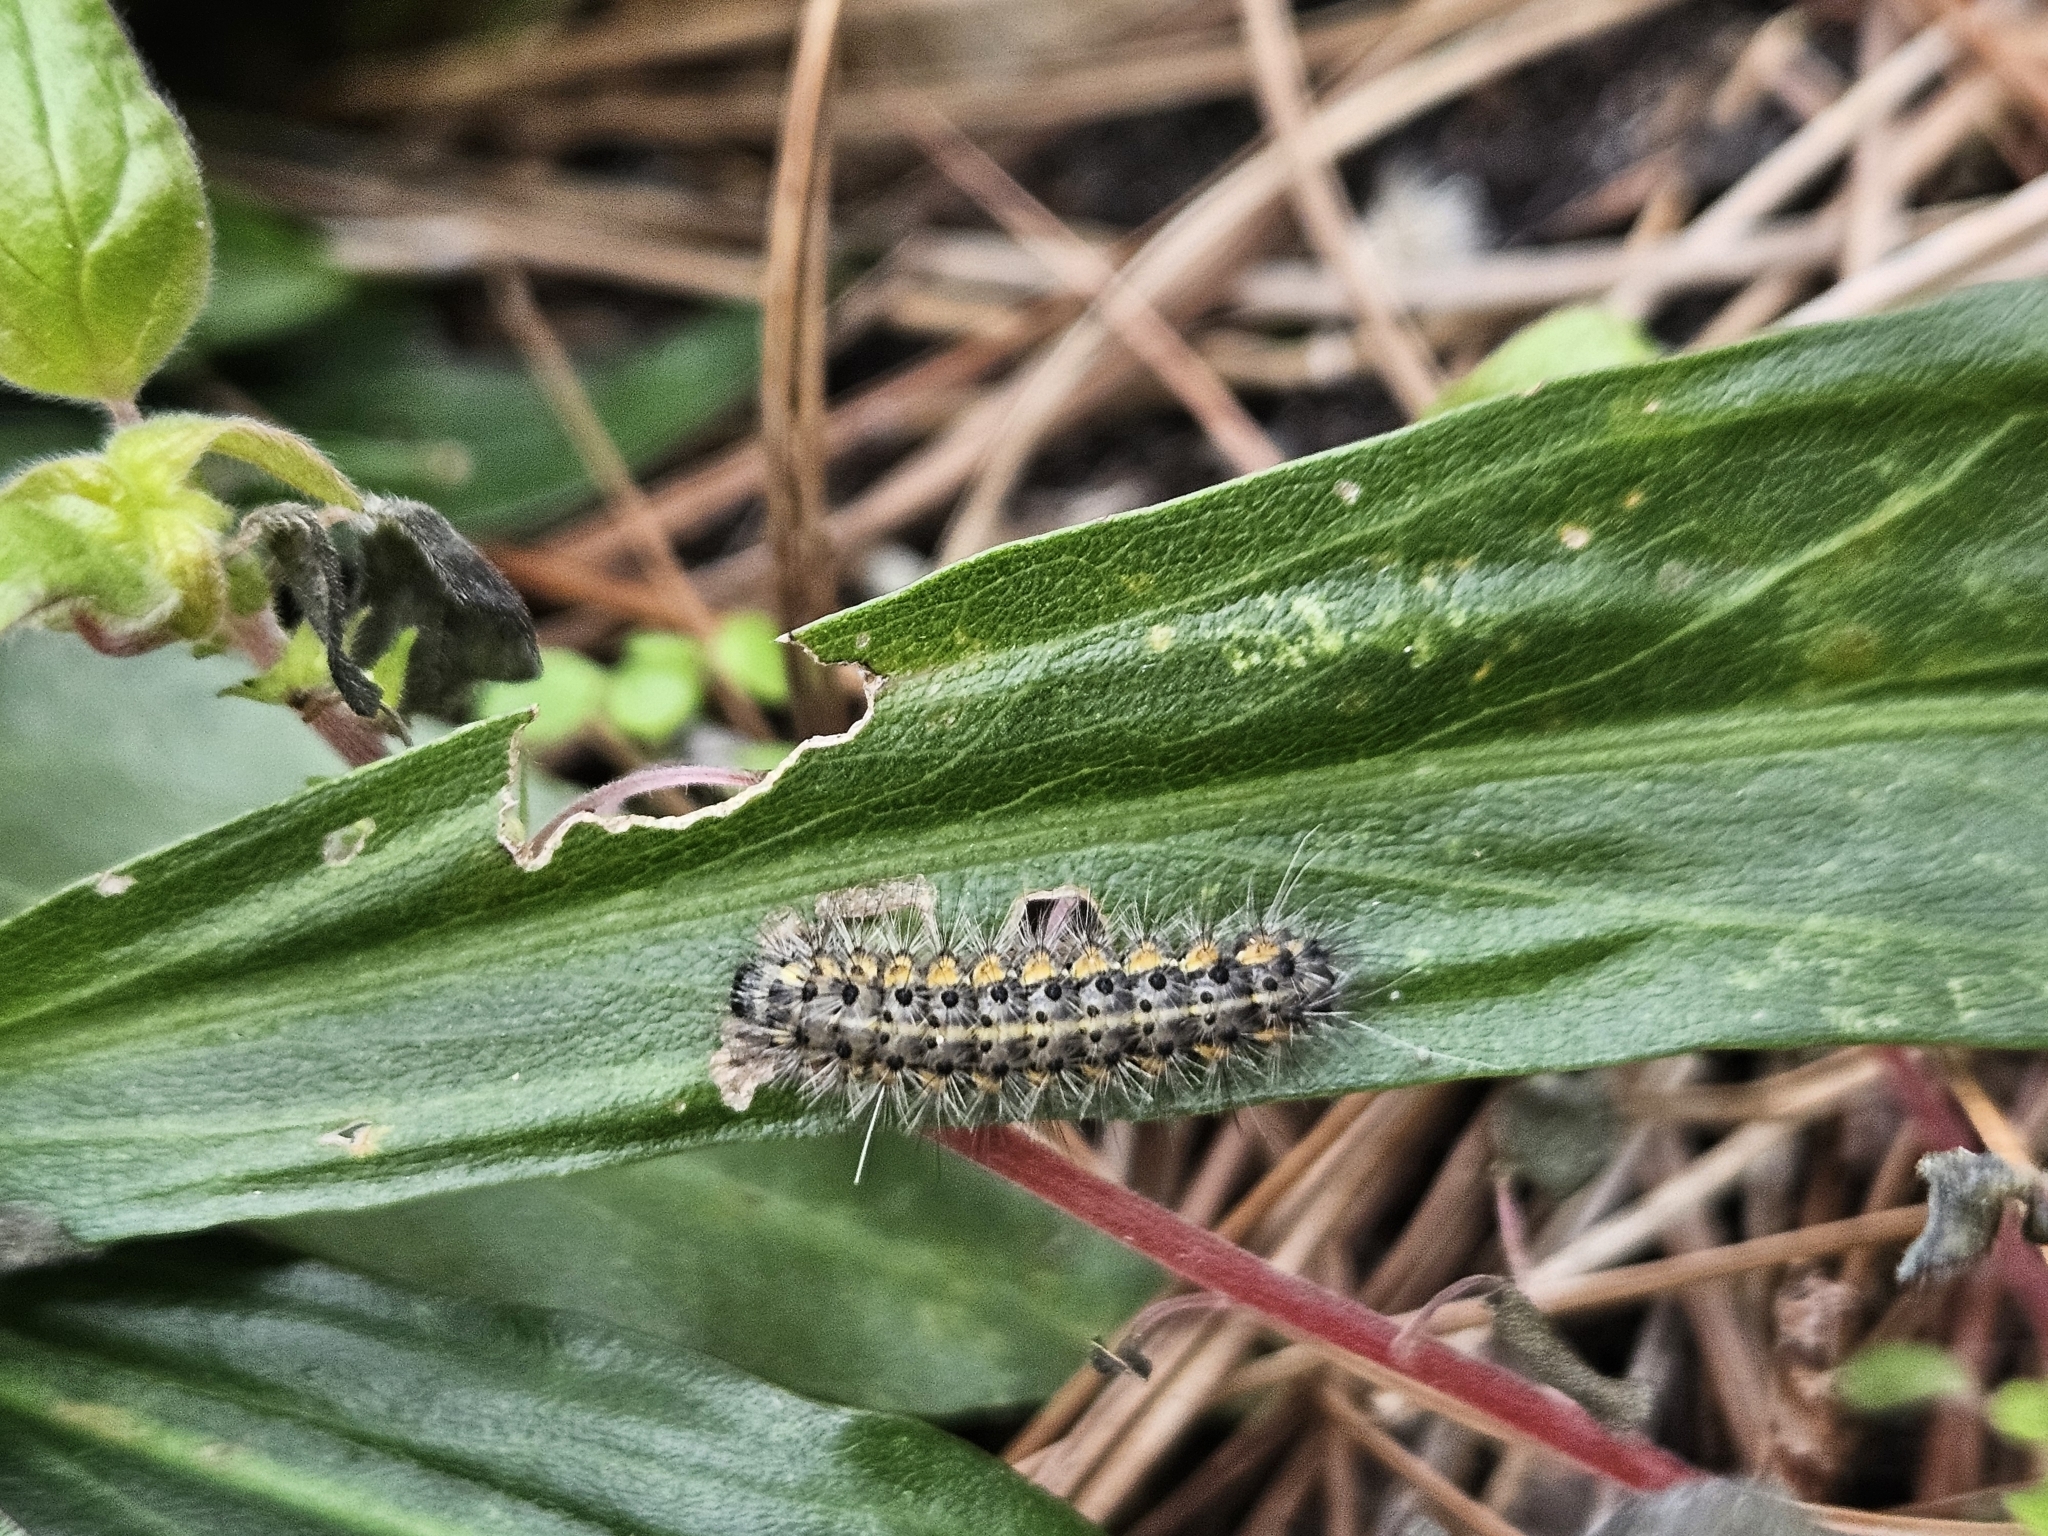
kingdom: Animalia
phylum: Arthropoda
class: Insecta
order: Lepidoptera
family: Erebidae
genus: Estigmene
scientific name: Estigmene acrea
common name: Salt marsh moth
